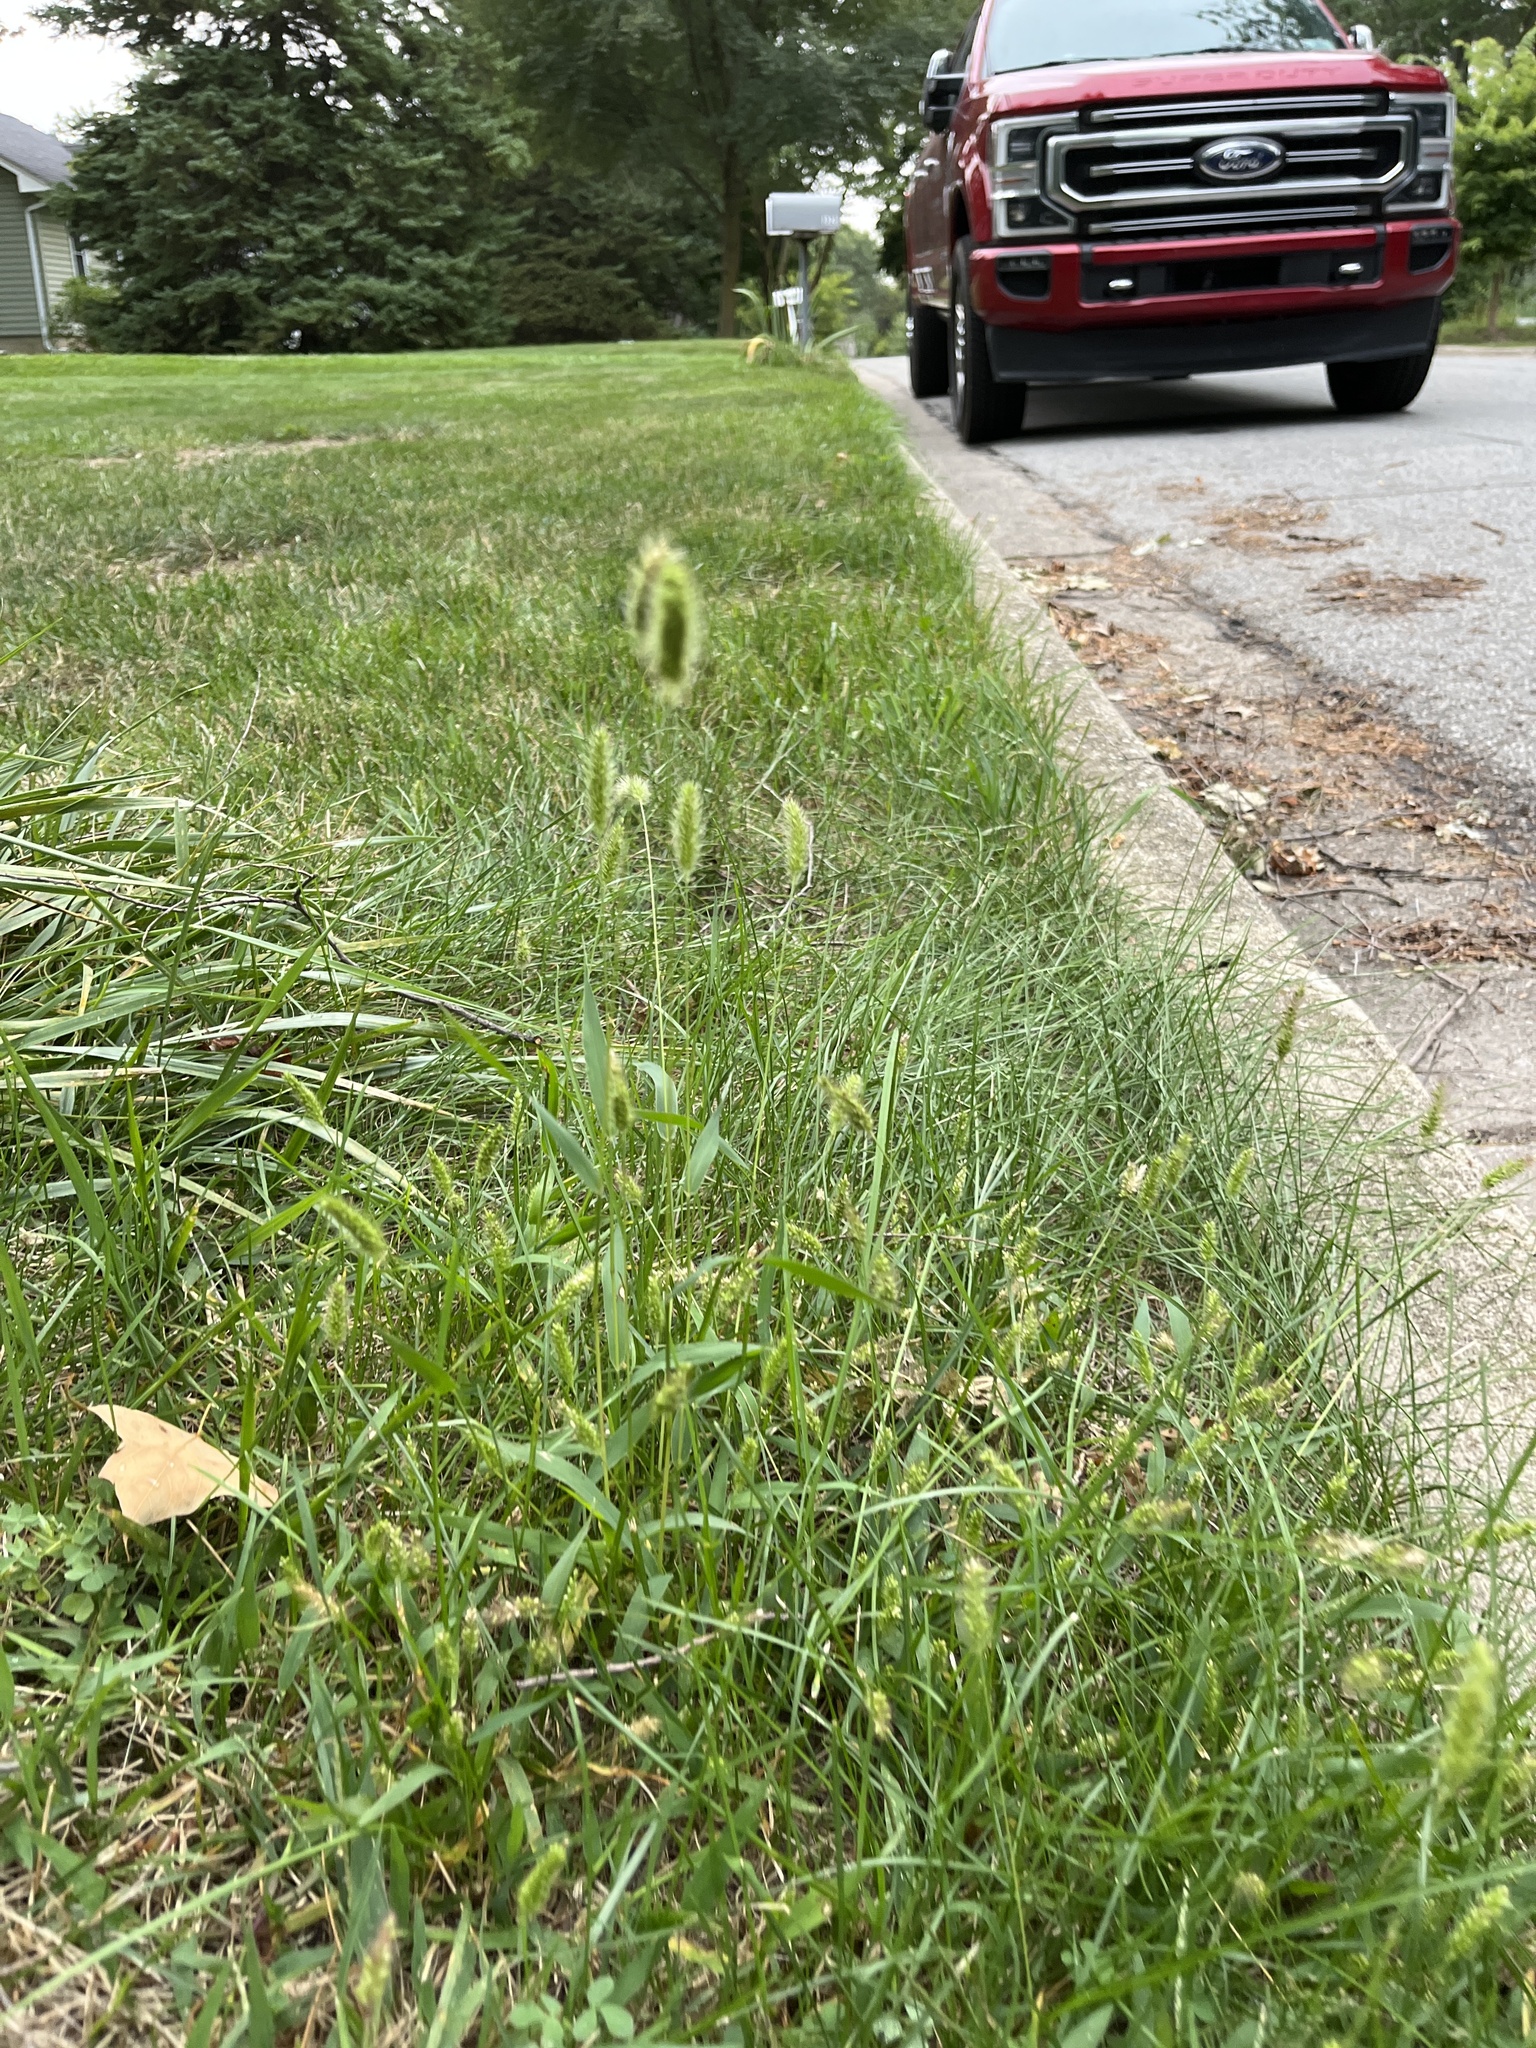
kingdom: Plantae
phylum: Tracheophyta
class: Liliopsida
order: Poales
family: Poaceae
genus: Setaria
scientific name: Setaria viridis
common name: Green bristlegrass
